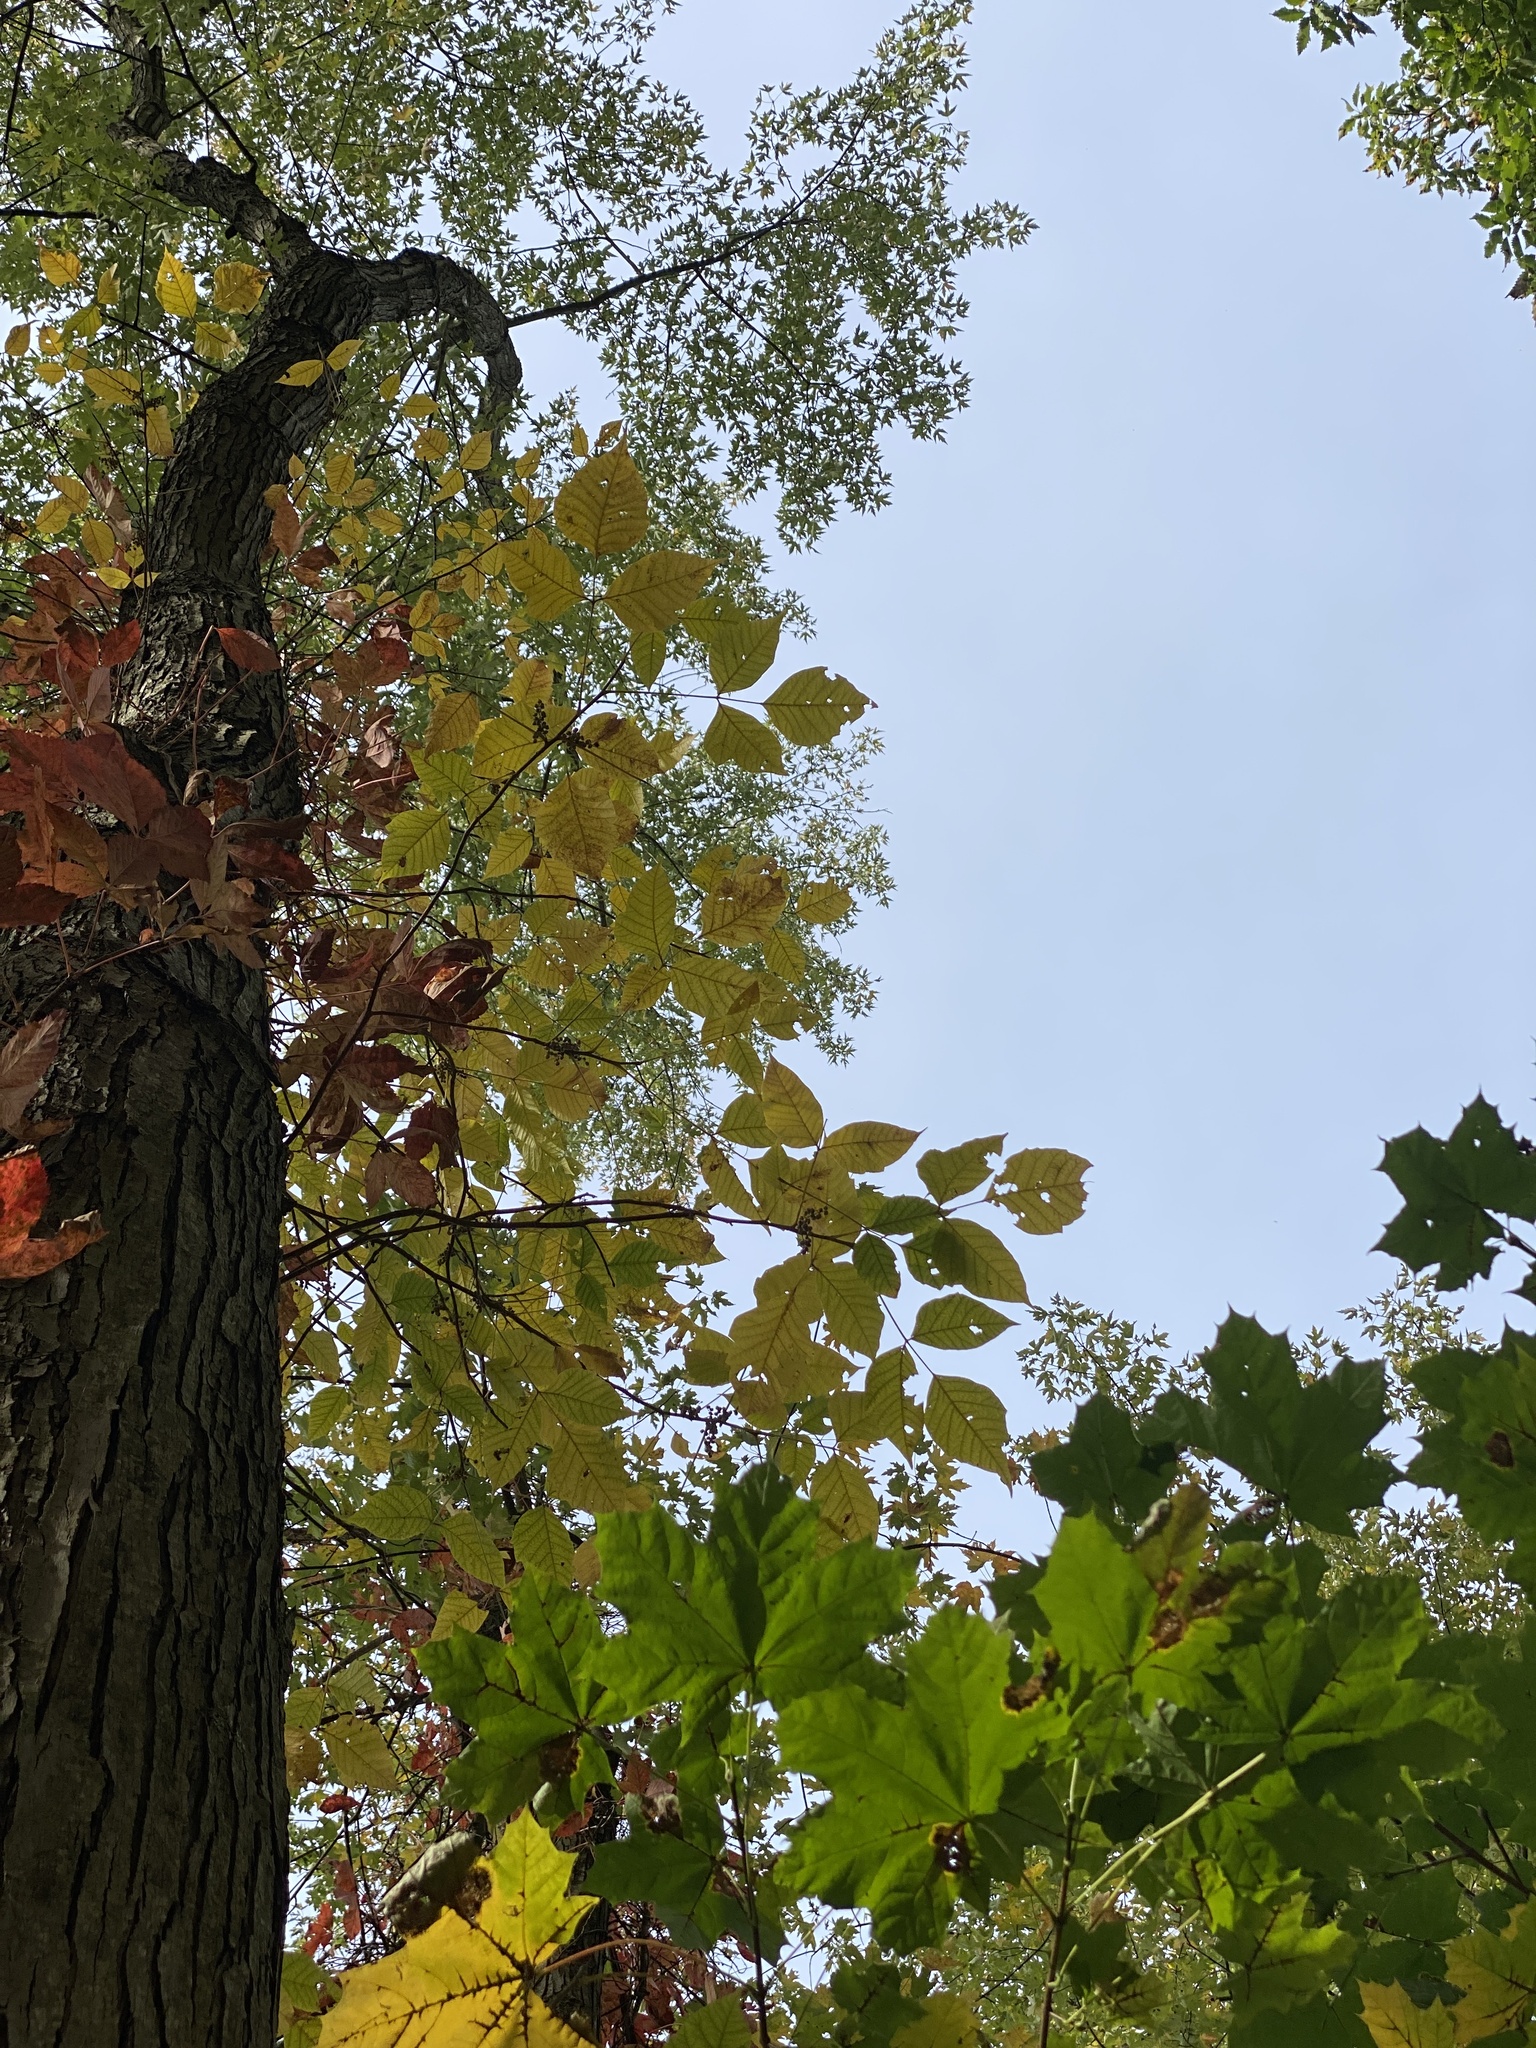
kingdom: Plantae
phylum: Tracheophyta
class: Magnoliopsida
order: Sapindales
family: Anacardiaceae
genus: Toxicodendron
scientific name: Toxicodendron radicans
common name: Poison ivy
